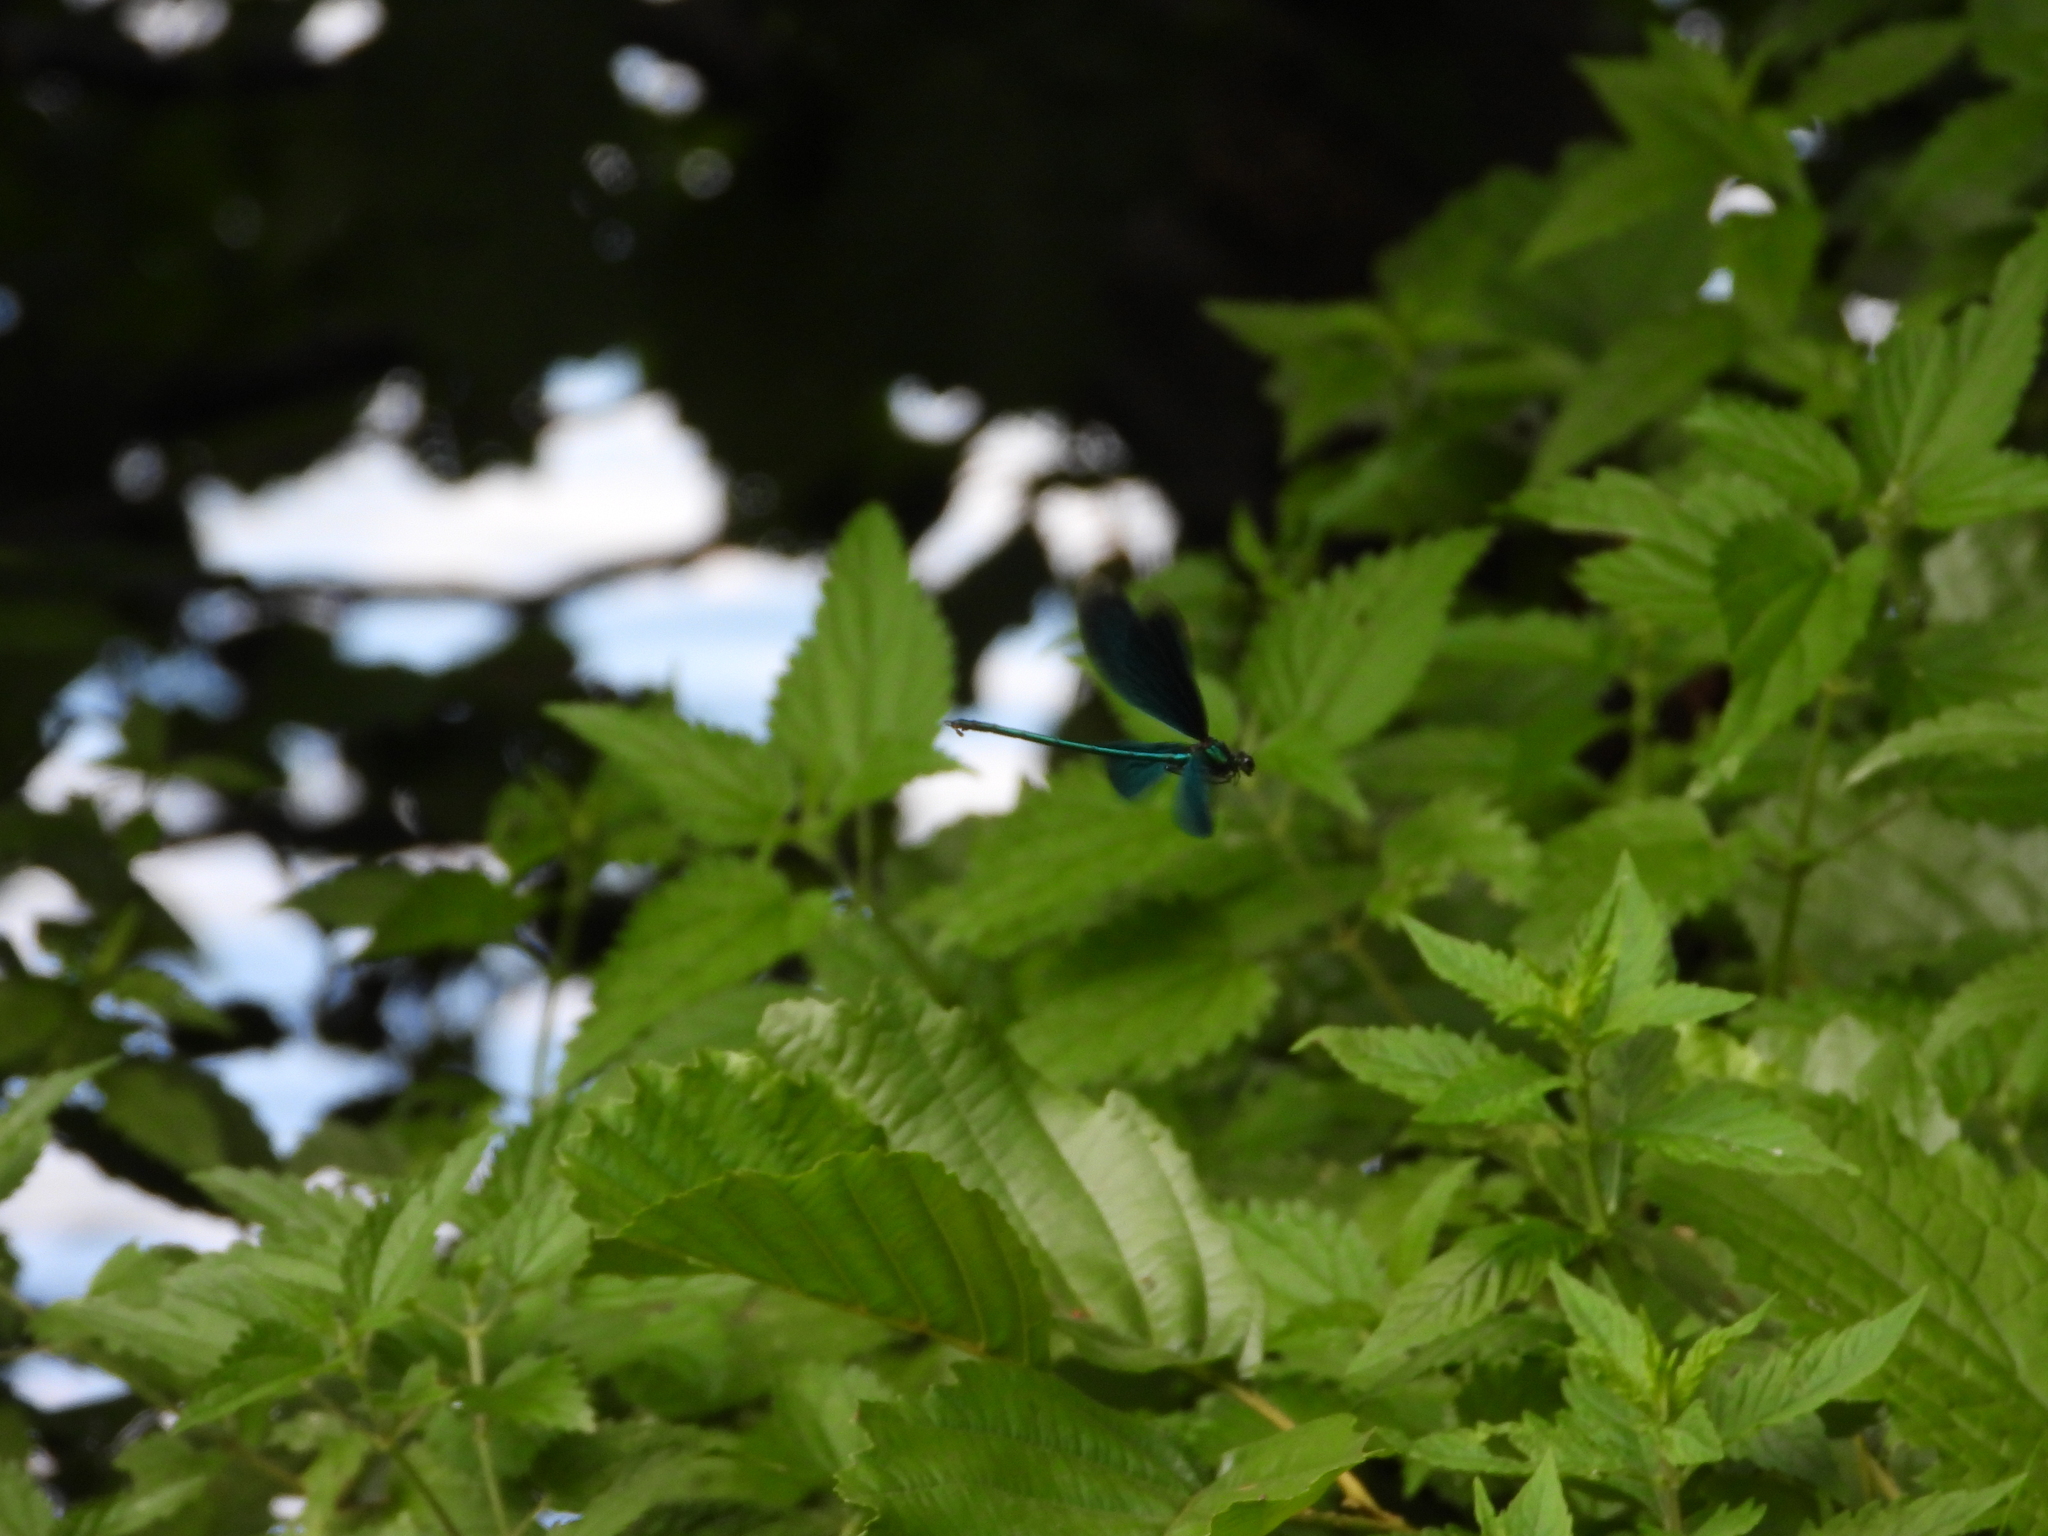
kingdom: Animalia
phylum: Arthropoda
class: Insecta
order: Odonata
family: Calopterygidae
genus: Calopteryx
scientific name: Calopteryx virgo
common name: Beautiful demoiselle
